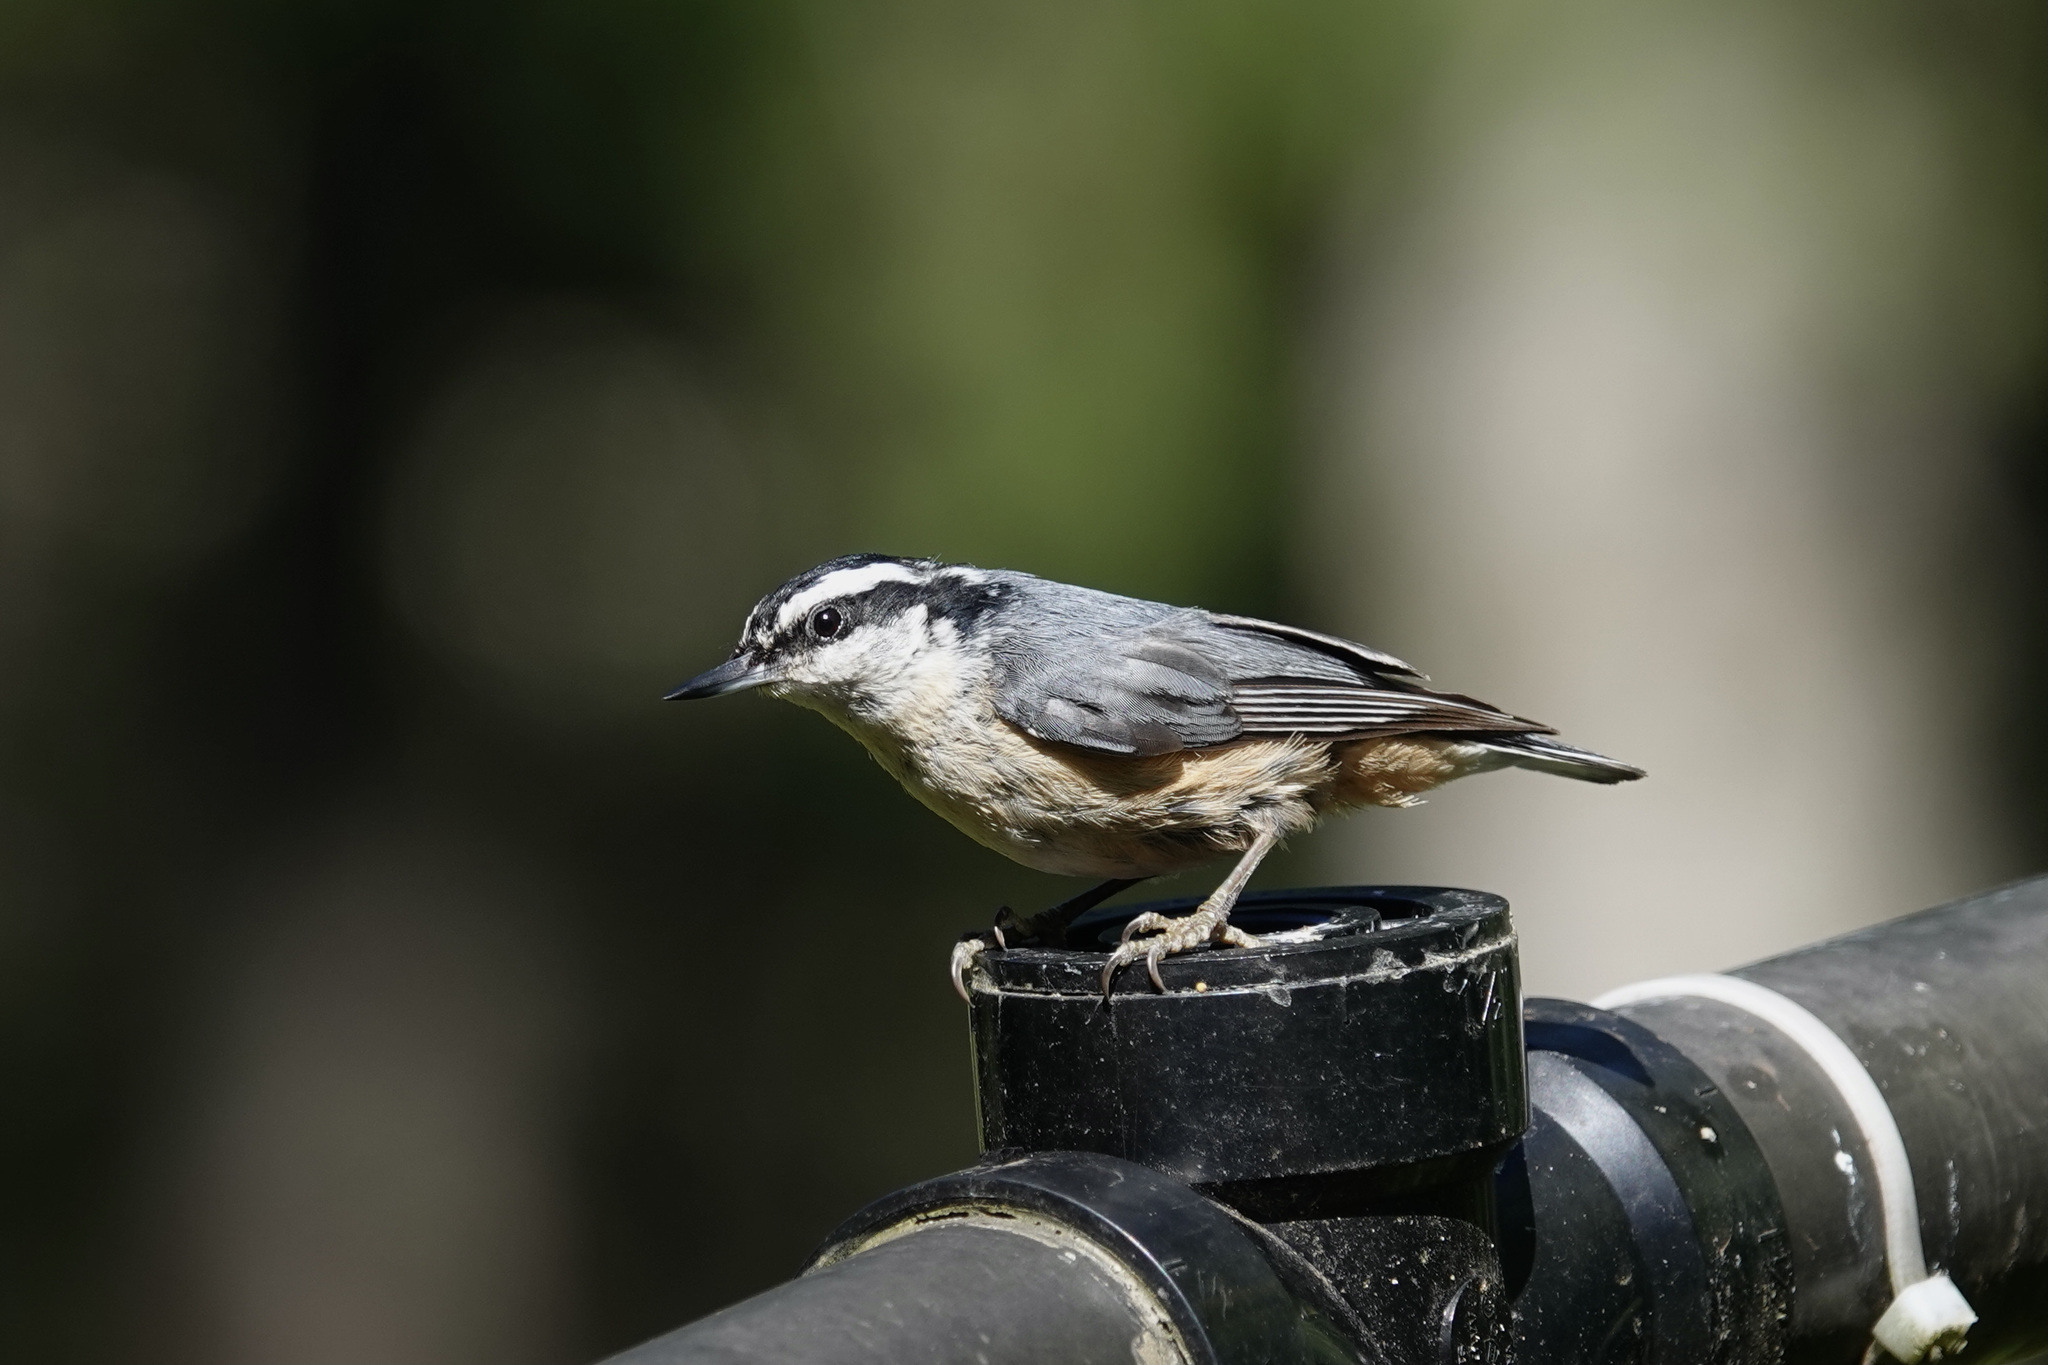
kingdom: Animalia
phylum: Chordata
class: Aves
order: Passeriformes
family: Sittidae
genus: Sitta
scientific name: Sitta canadensis
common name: Red-breasted nuthatch
